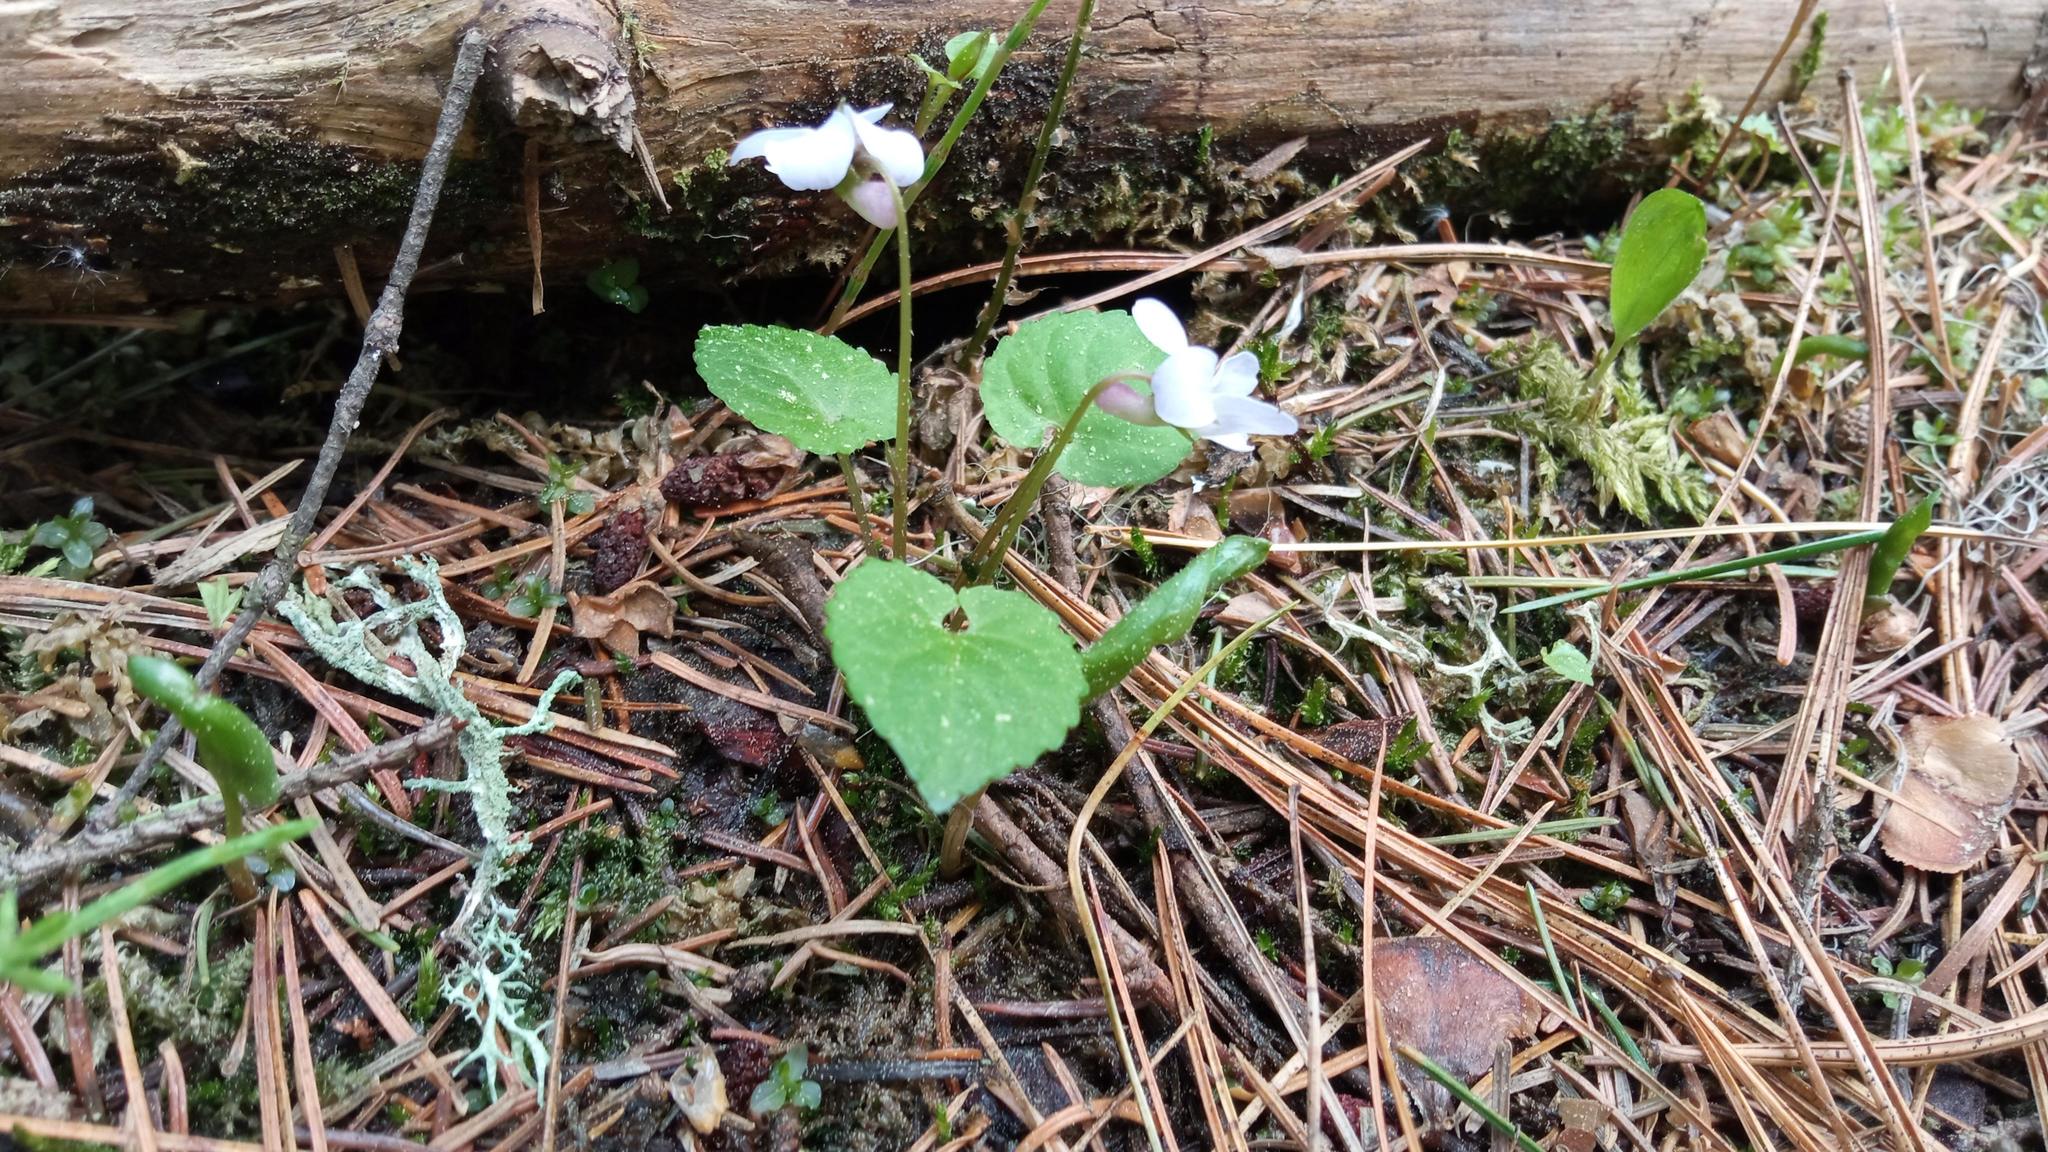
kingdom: Plantae
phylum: Tracheophyta
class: Magnoliopsida
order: Malpighiales
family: Violaceae
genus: Viola
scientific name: Viola selkirkii
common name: Selkirk's violet
